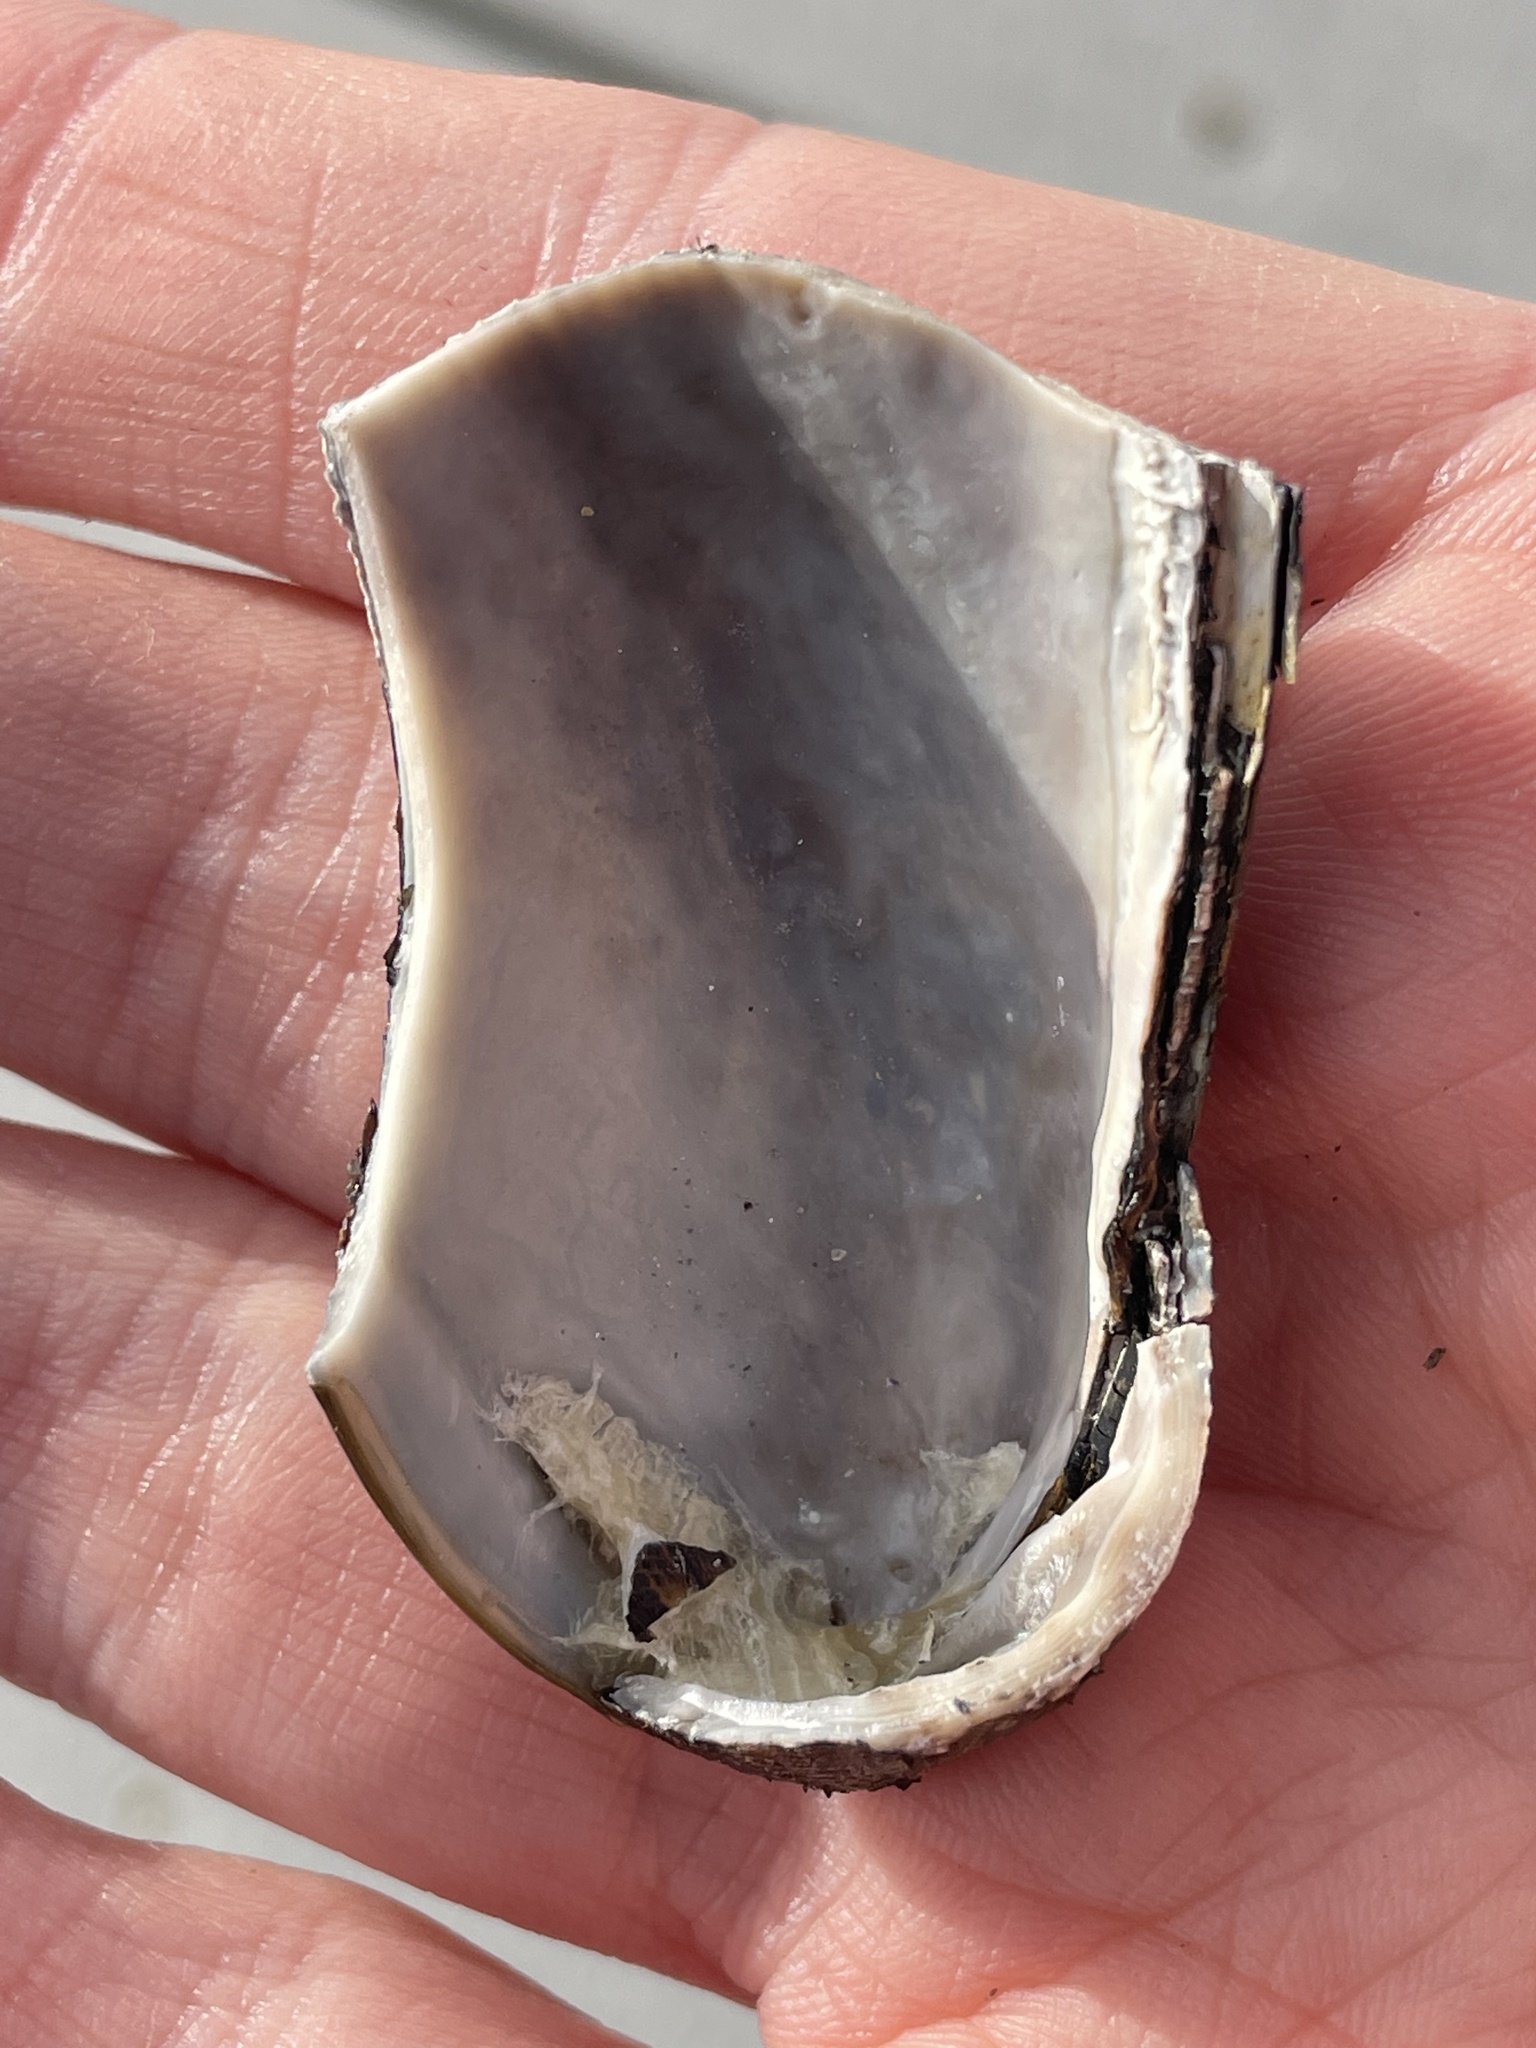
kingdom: Animalia
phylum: Mollusca
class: Bivalvia
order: Mytilida
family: Mytilidae
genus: Geukensia
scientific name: Geukensia demissa
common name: Ribbed mussel
